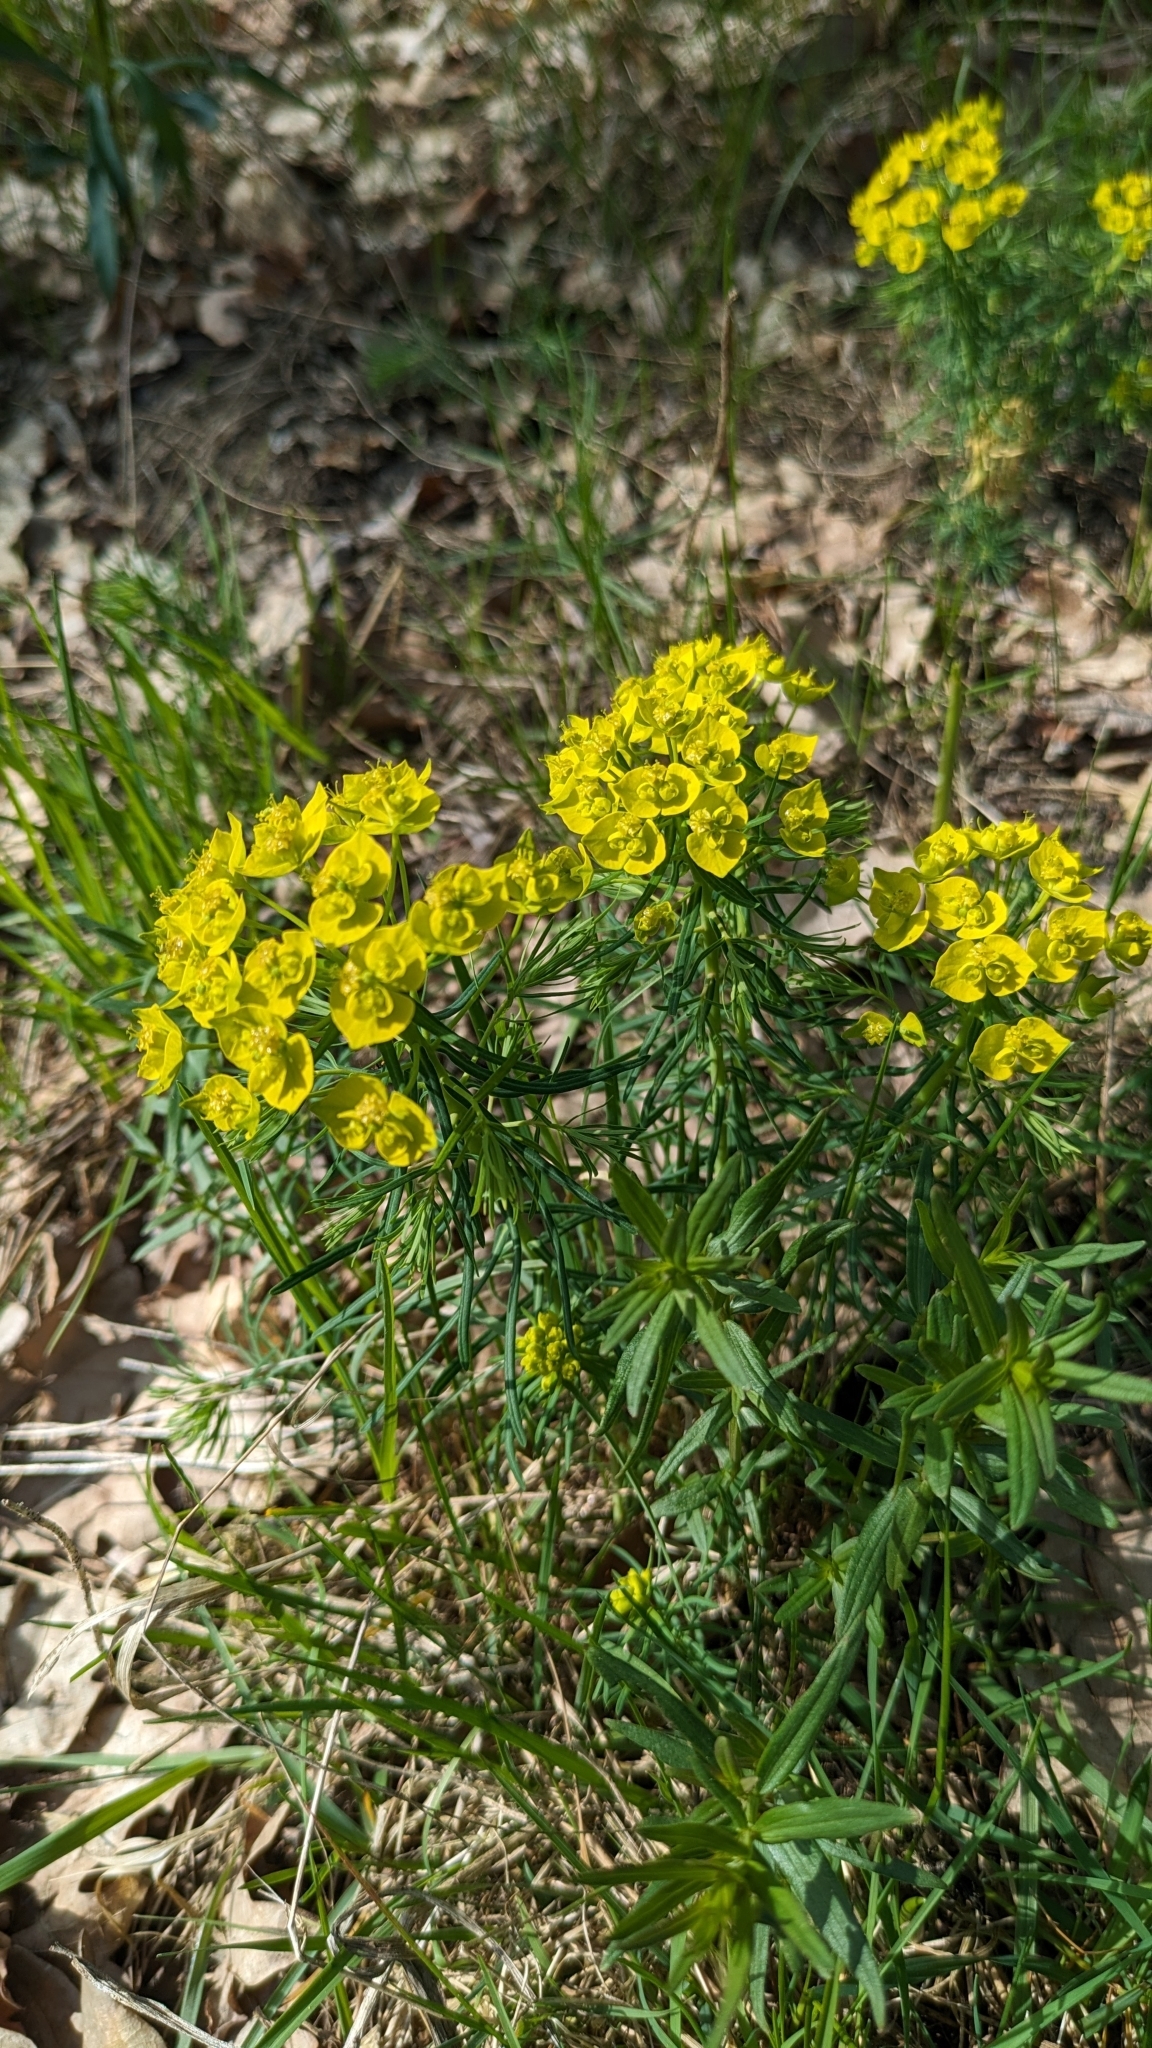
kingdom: Plantae
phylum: Tracheophyta
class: Magnoliopsida
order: Malpighiales
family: Euphorbiaceae
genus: Euphorbia
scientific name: Euphorbia cyparissias
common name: Cypress spurge
